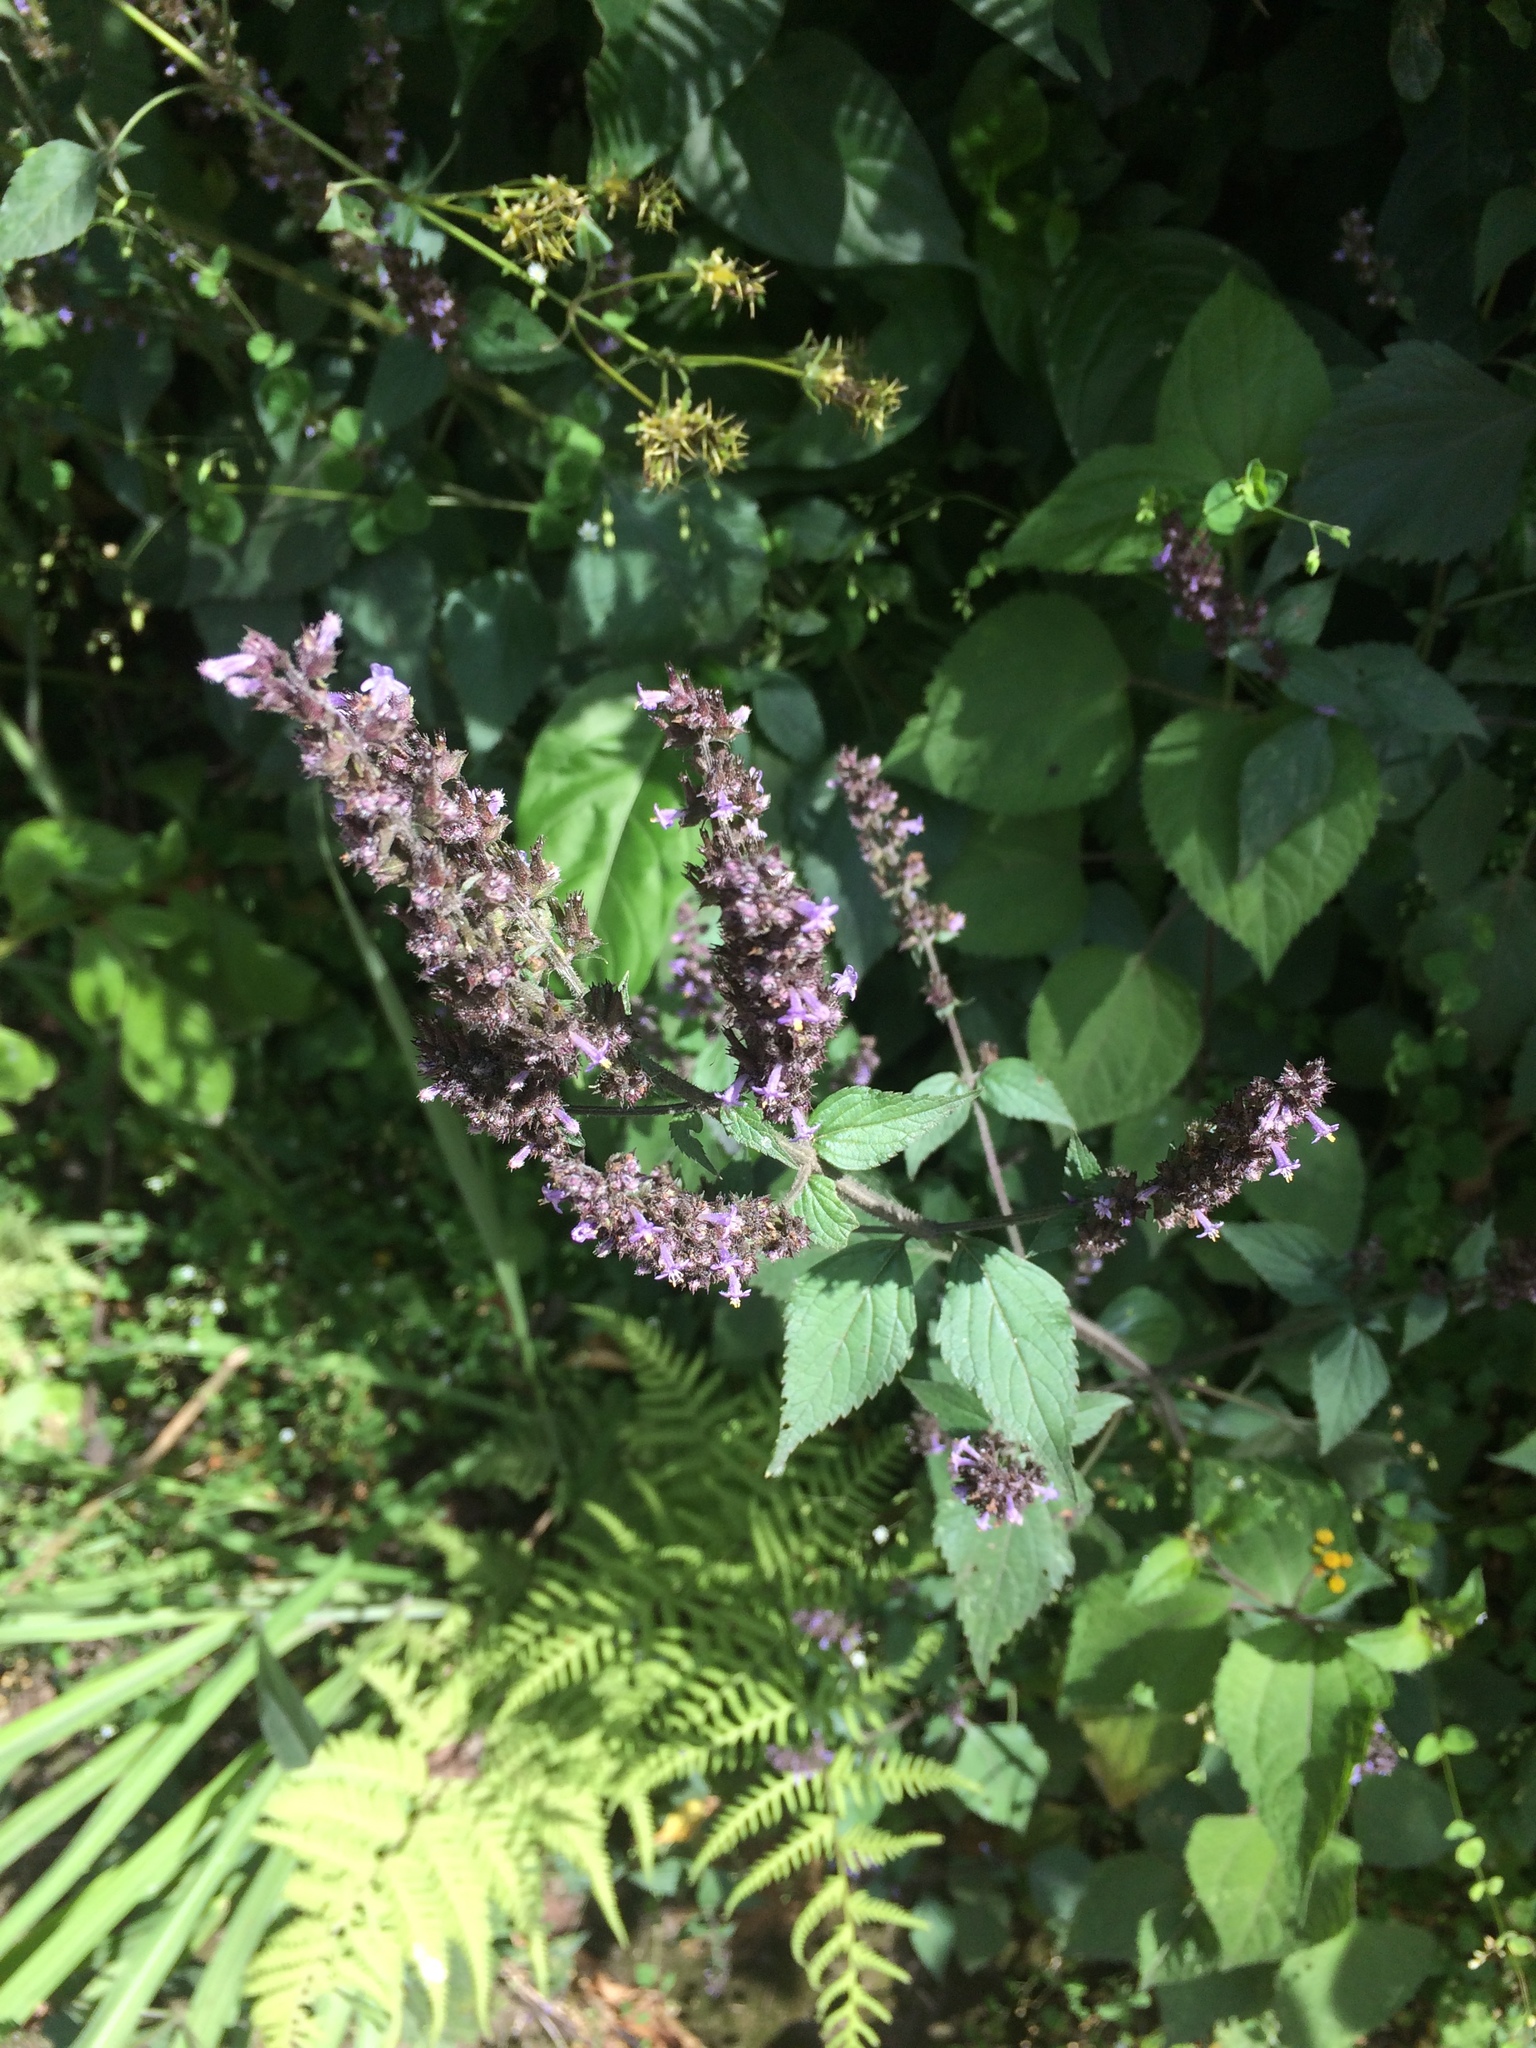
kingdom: Plantae
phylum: Tracheophyta
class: Magnoliopsida
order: Lamiales
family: Lamiaceae
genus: Cantinoa
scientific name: Cantinoa mutabilis
